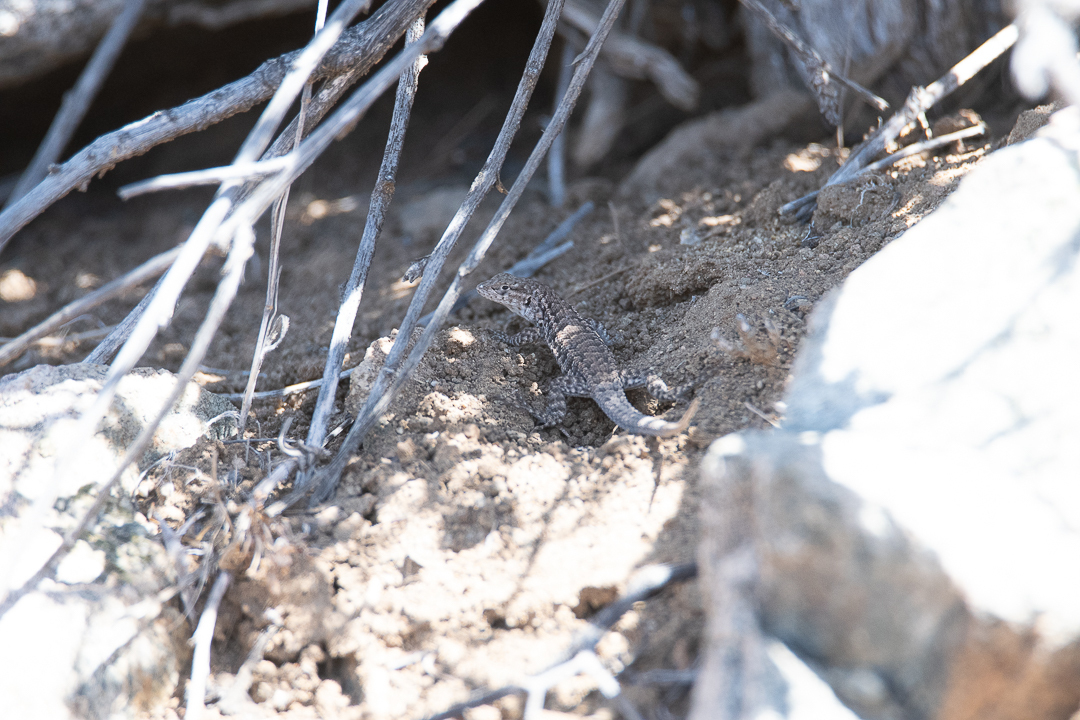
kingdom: Animalia
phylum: Chordata
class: Squamata
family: Liolaemidae
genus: Liolaemus
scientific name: Liolaemus platei
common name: Braided tree iguana
